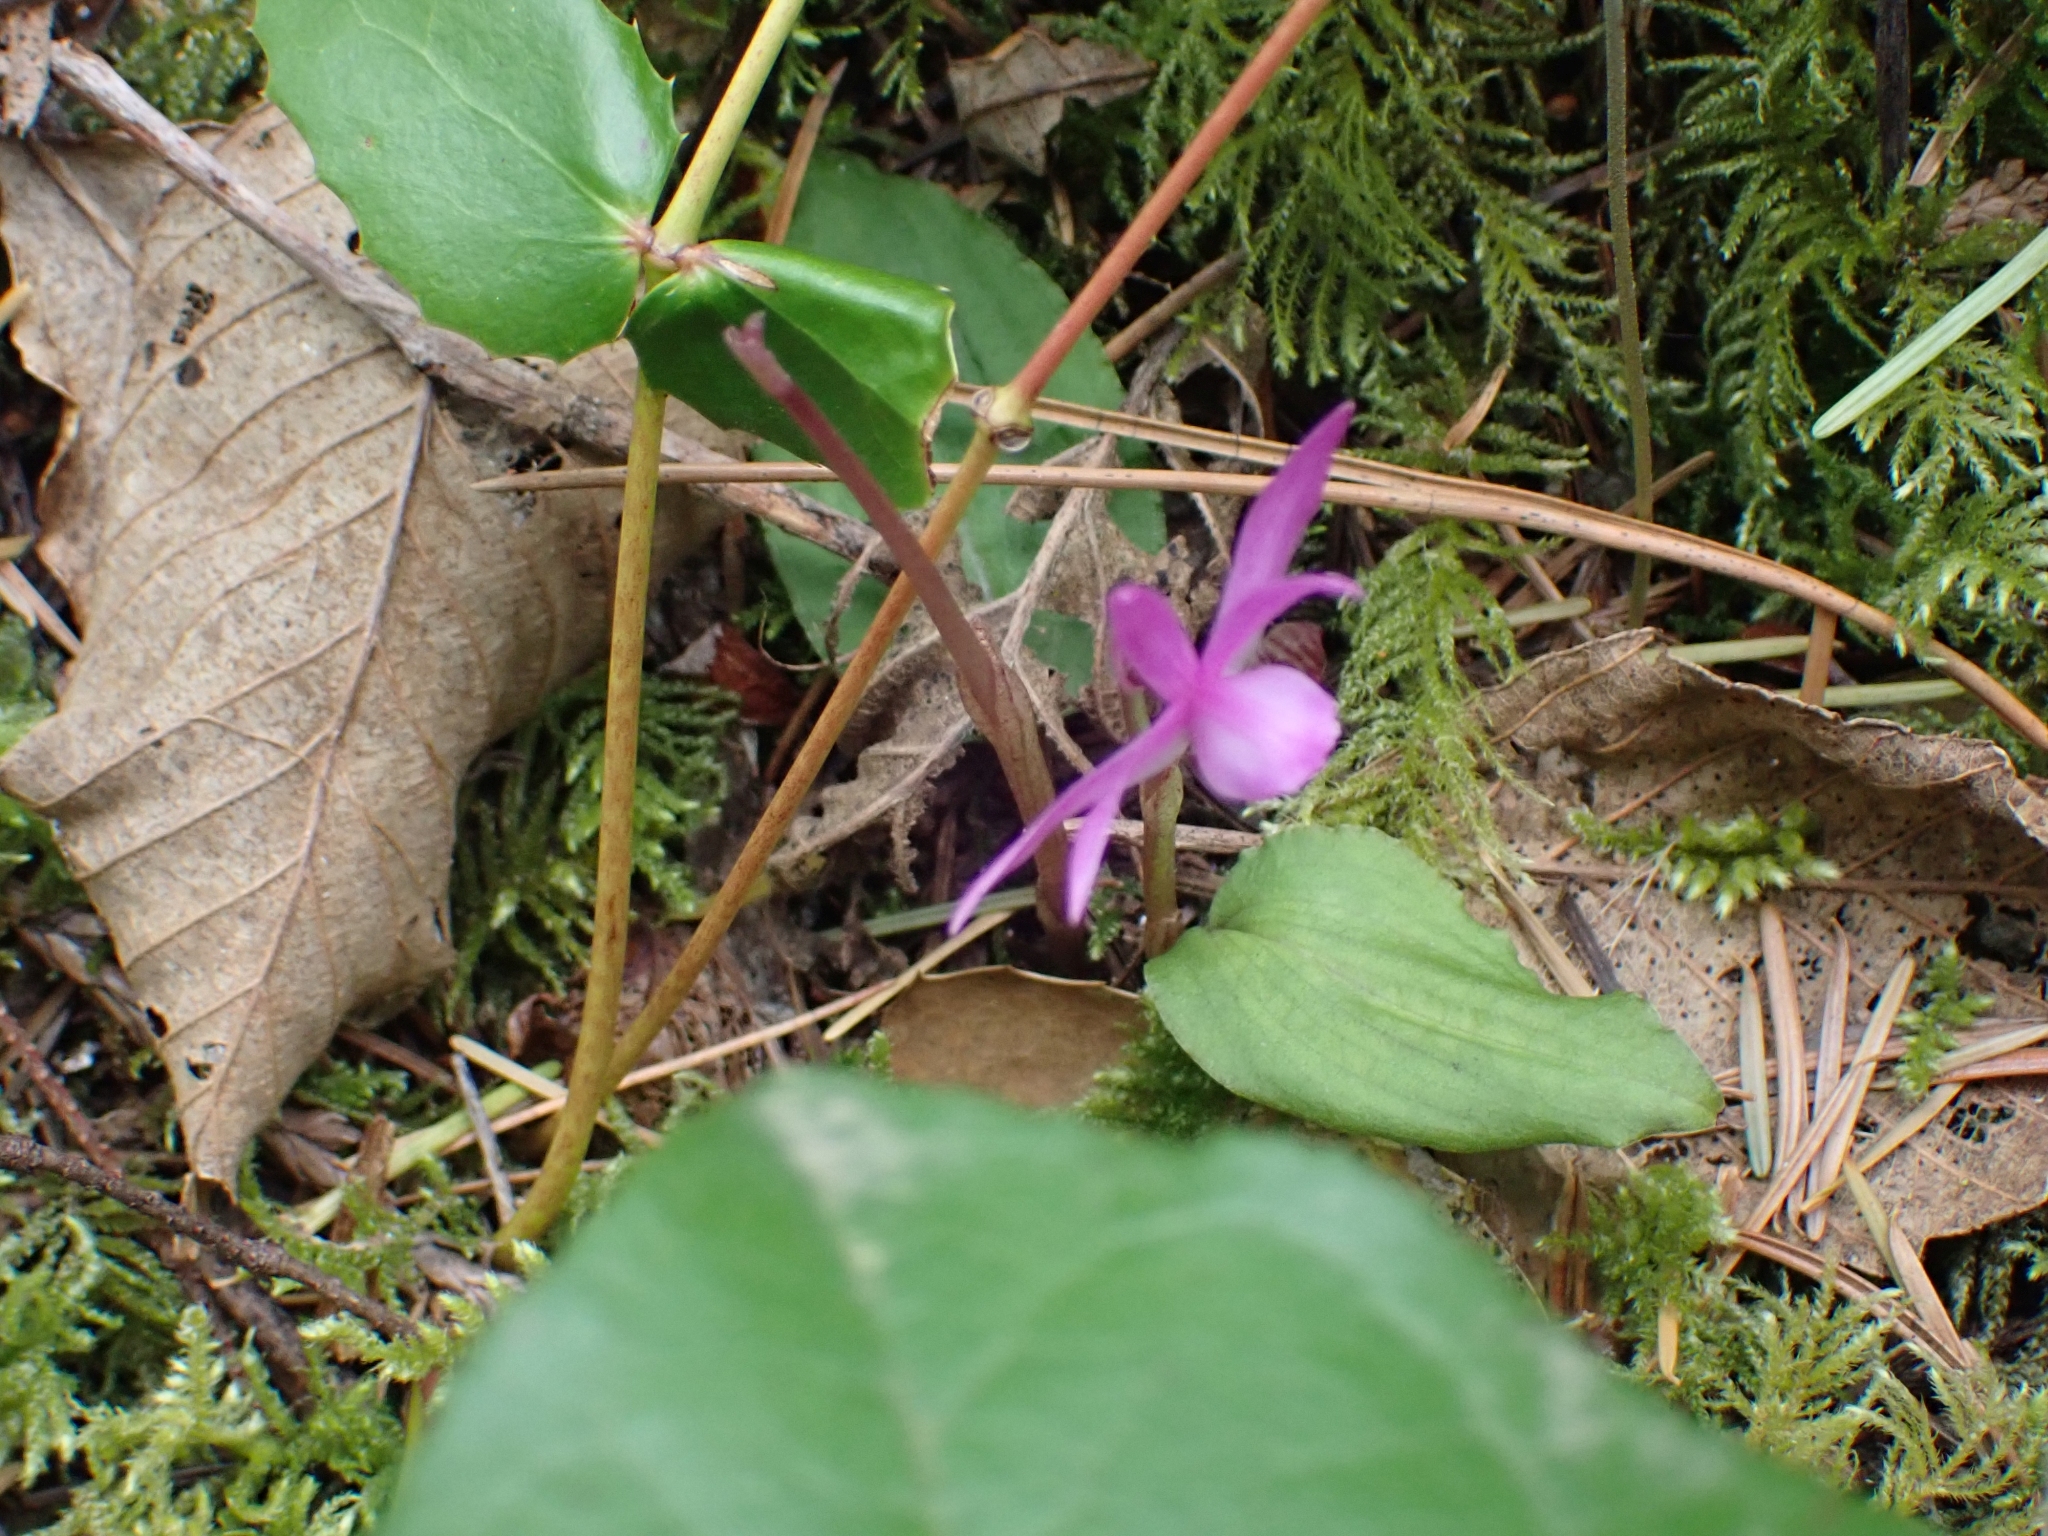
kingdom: Plantae
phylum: Tracheophyta
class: Liliopsida
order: Asparagales
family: Orchidaceae
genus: Calypso
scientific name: Calypso bulbosa
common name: Calypso
